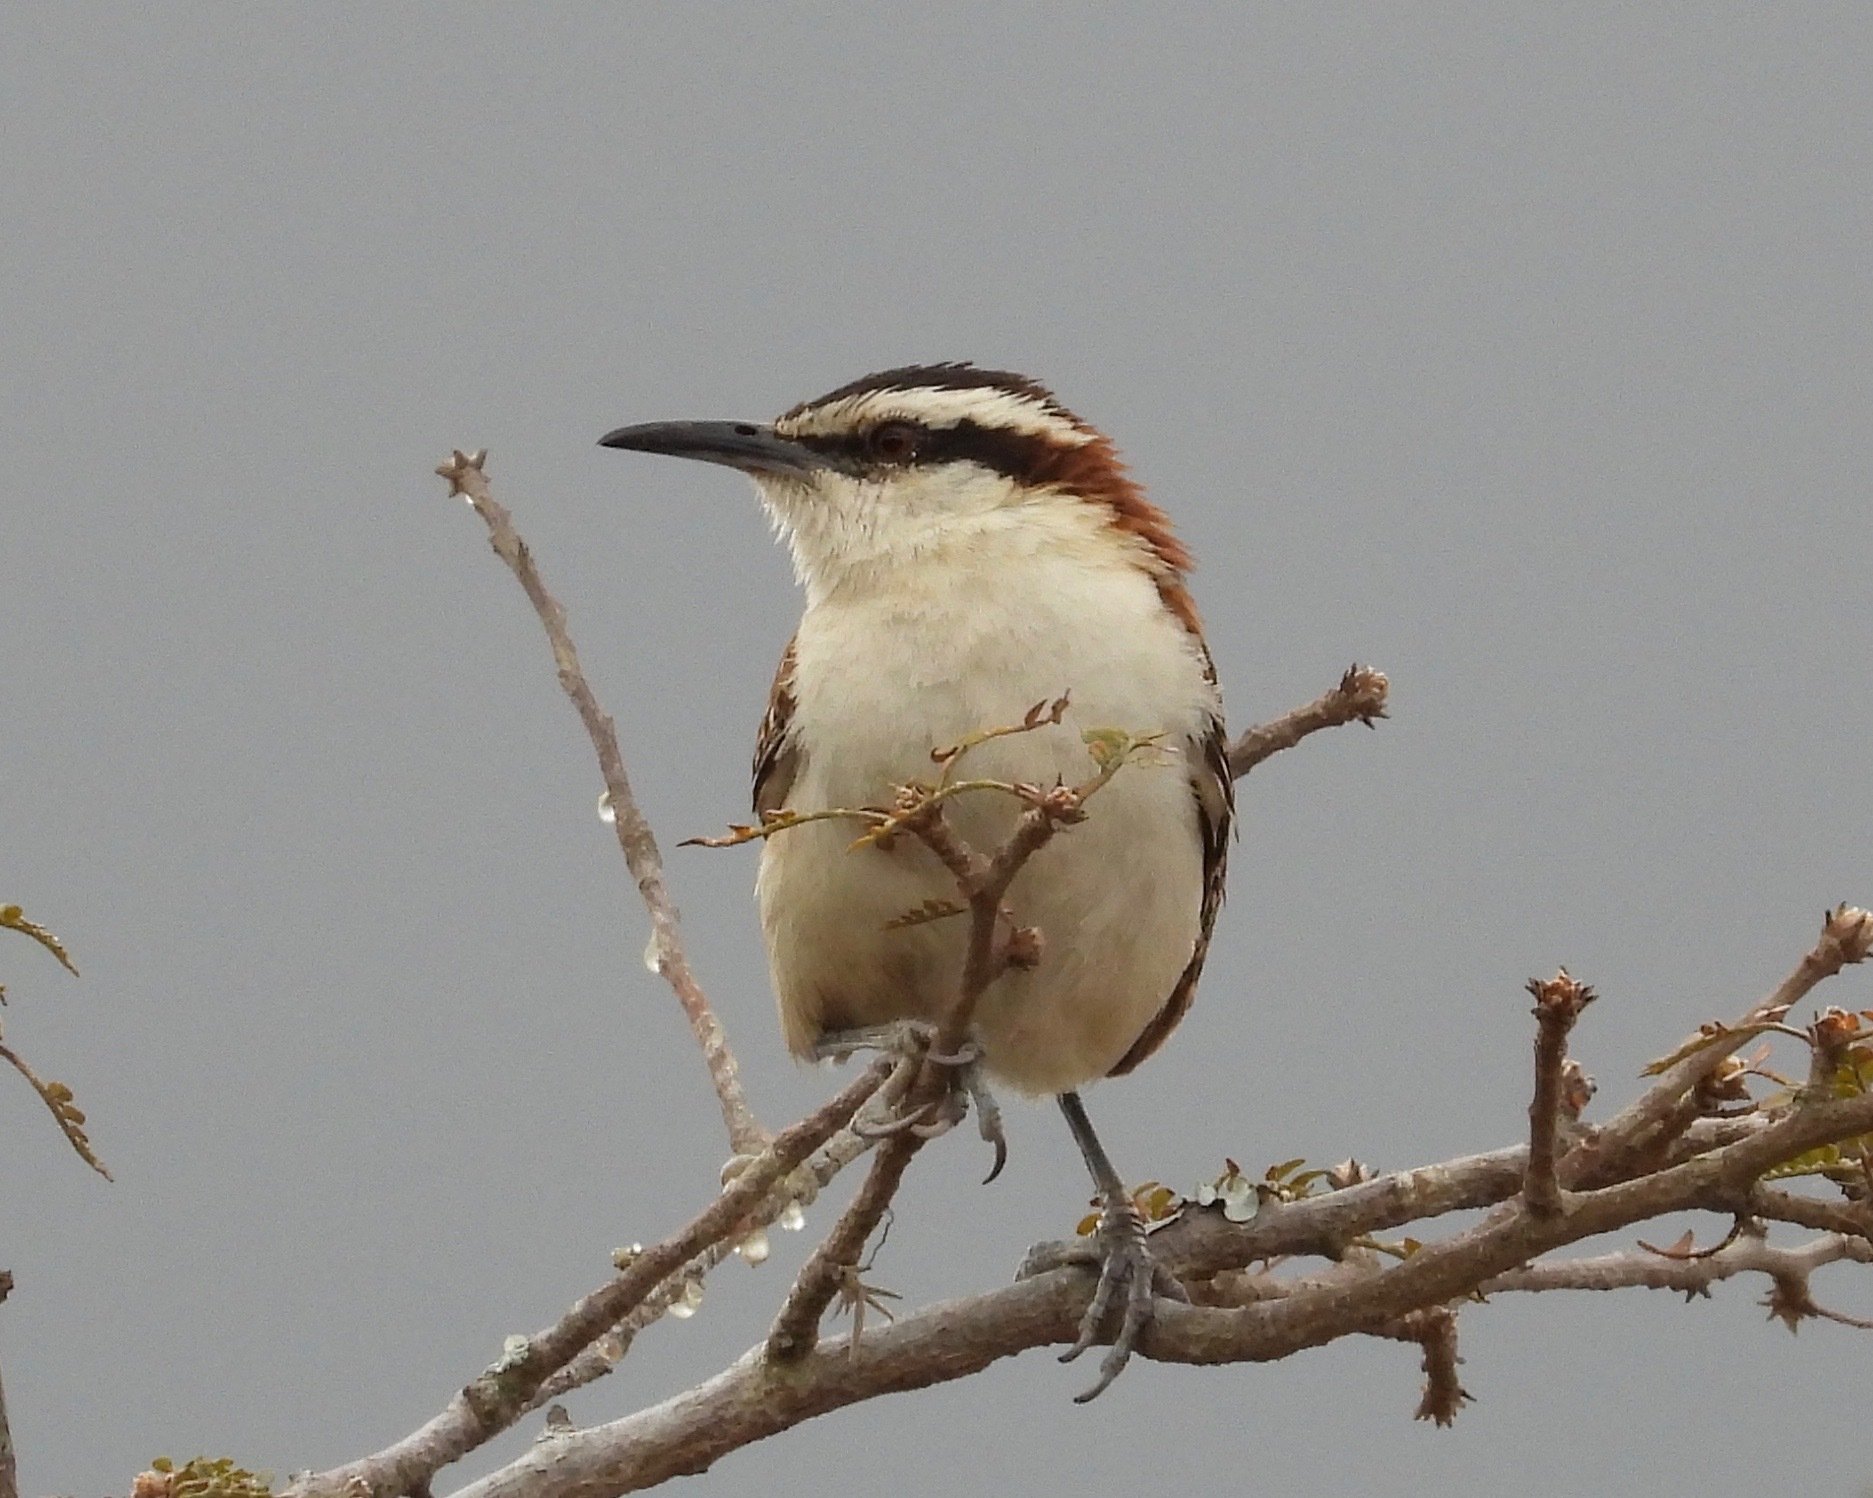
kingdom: Animalia
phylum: Chordata
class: Aves
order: Passeriformes
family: Troglodytidae
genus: Campylorhynchus
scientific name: Campylorhynchus rufinucha
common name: Rufous-naped wren
